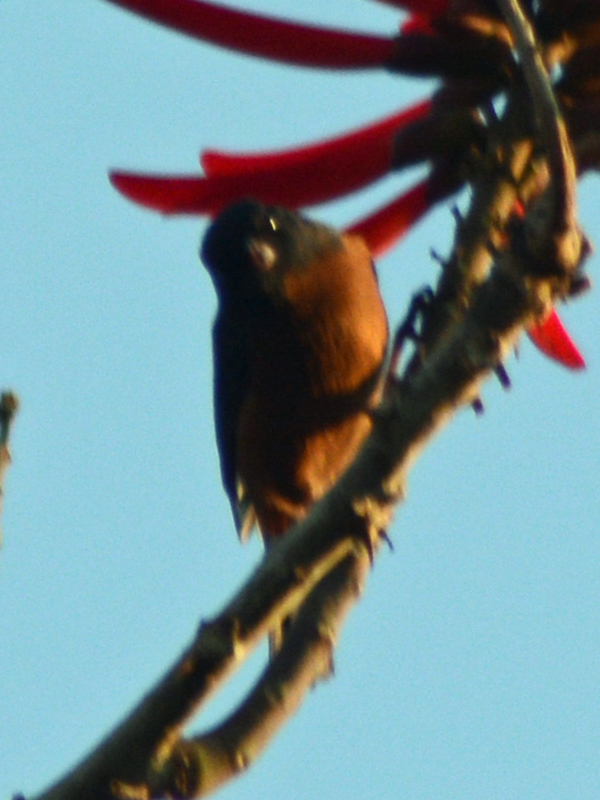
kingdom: Animalia
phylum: Chordata
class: Aves
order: Passeriformes
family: Thraupidae
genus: Diglossa
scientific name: Diglossa baritula
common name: Cinnamon-bellied flowerpiercer
